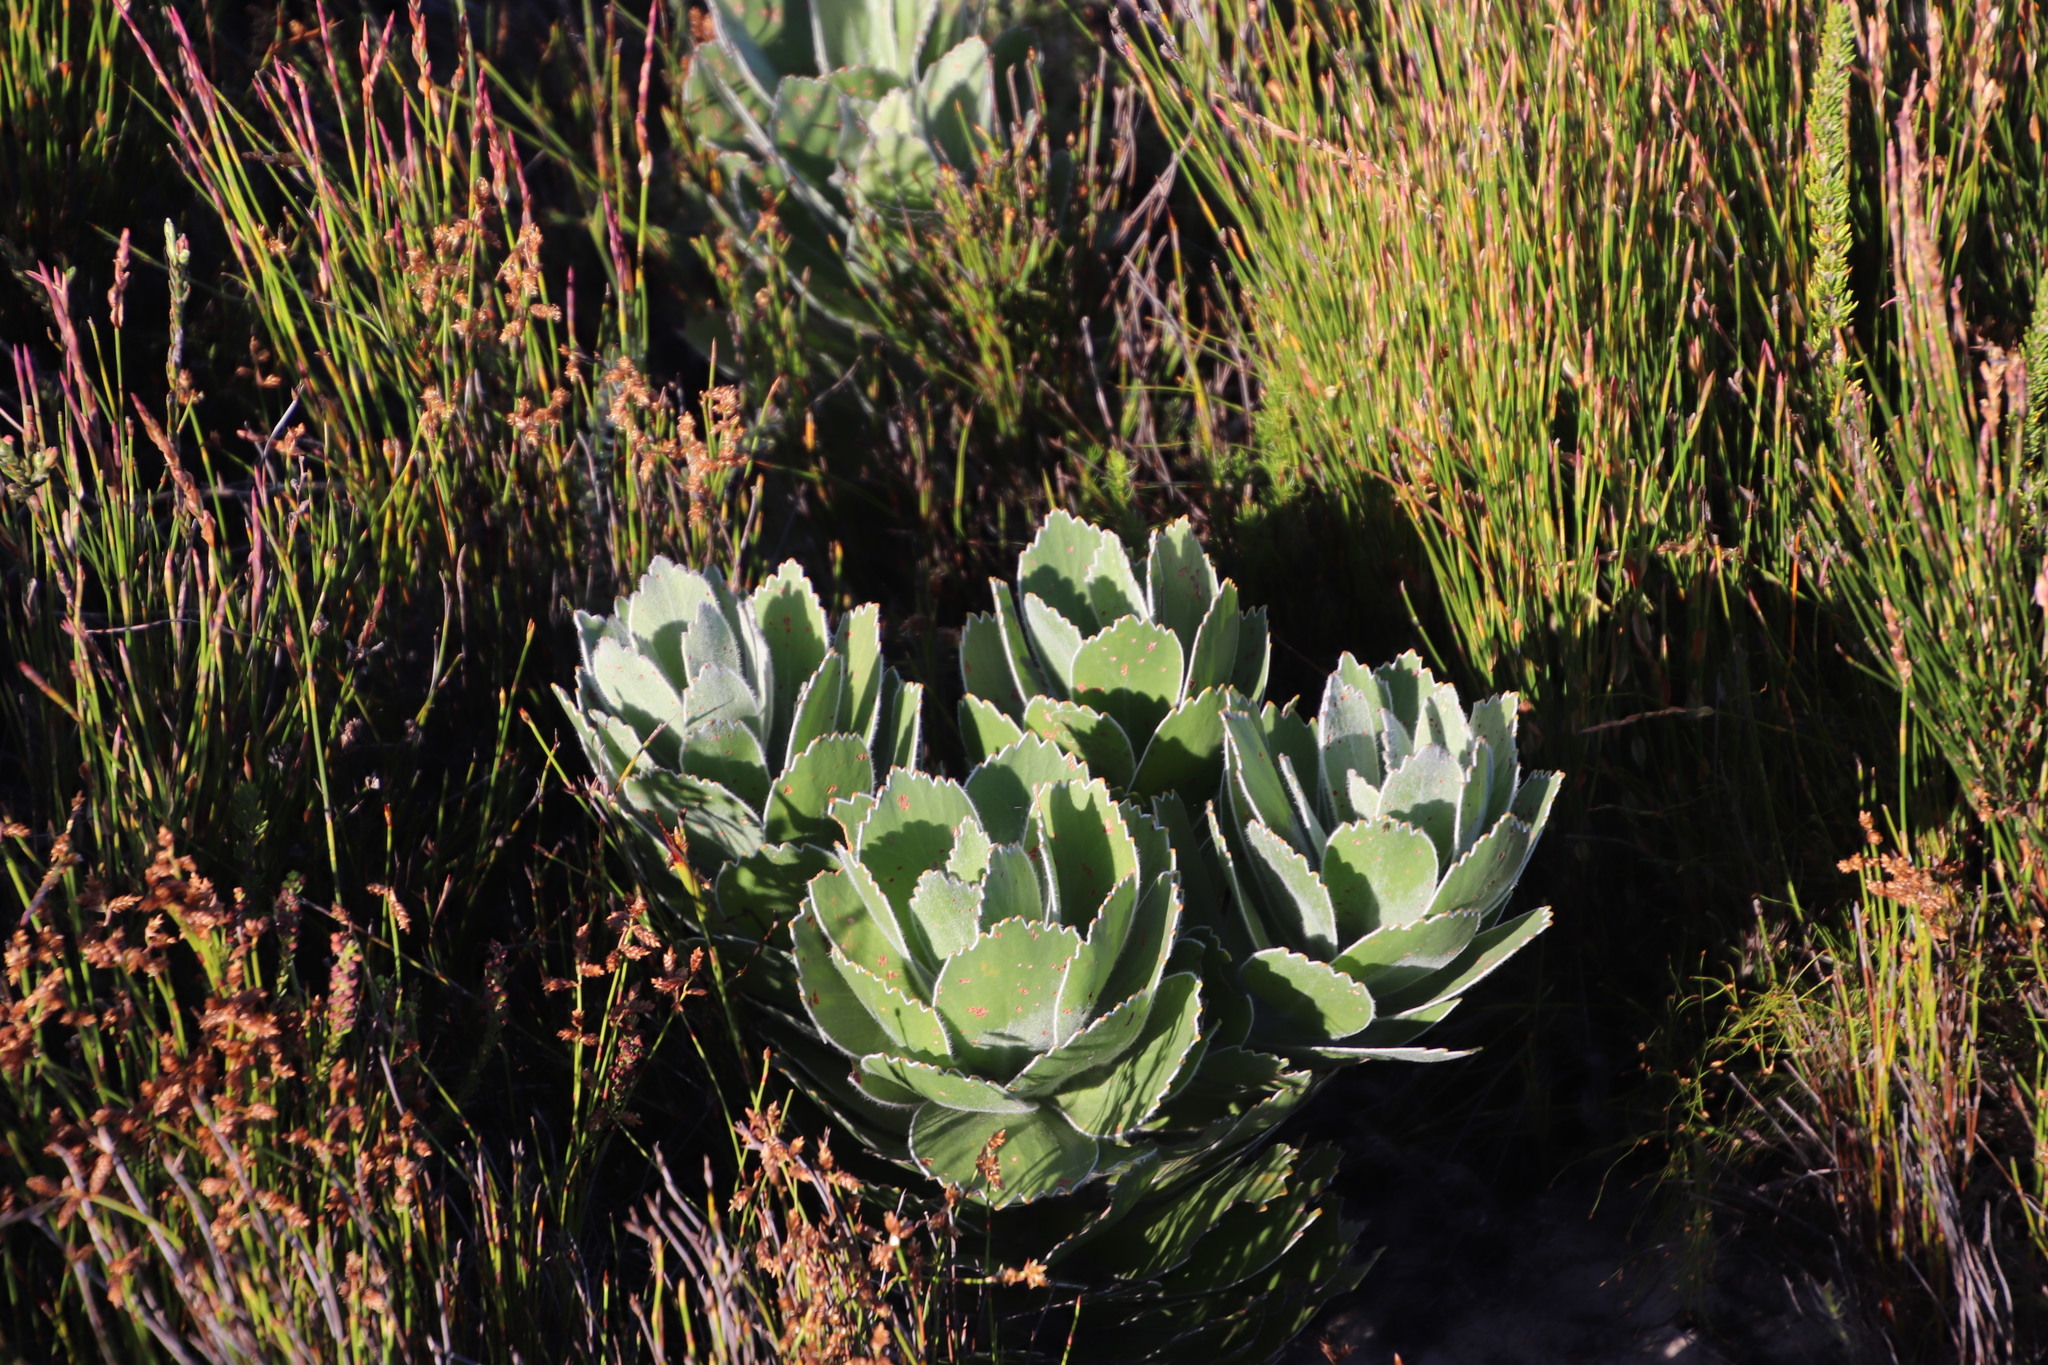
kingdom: Plantae
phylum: Tracheophyta
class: Magnoliopsida
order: Proteales
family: Proteaceae
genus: Leucospermum
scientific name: Leucospermum conocarpodendron
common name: Tree pincushion
